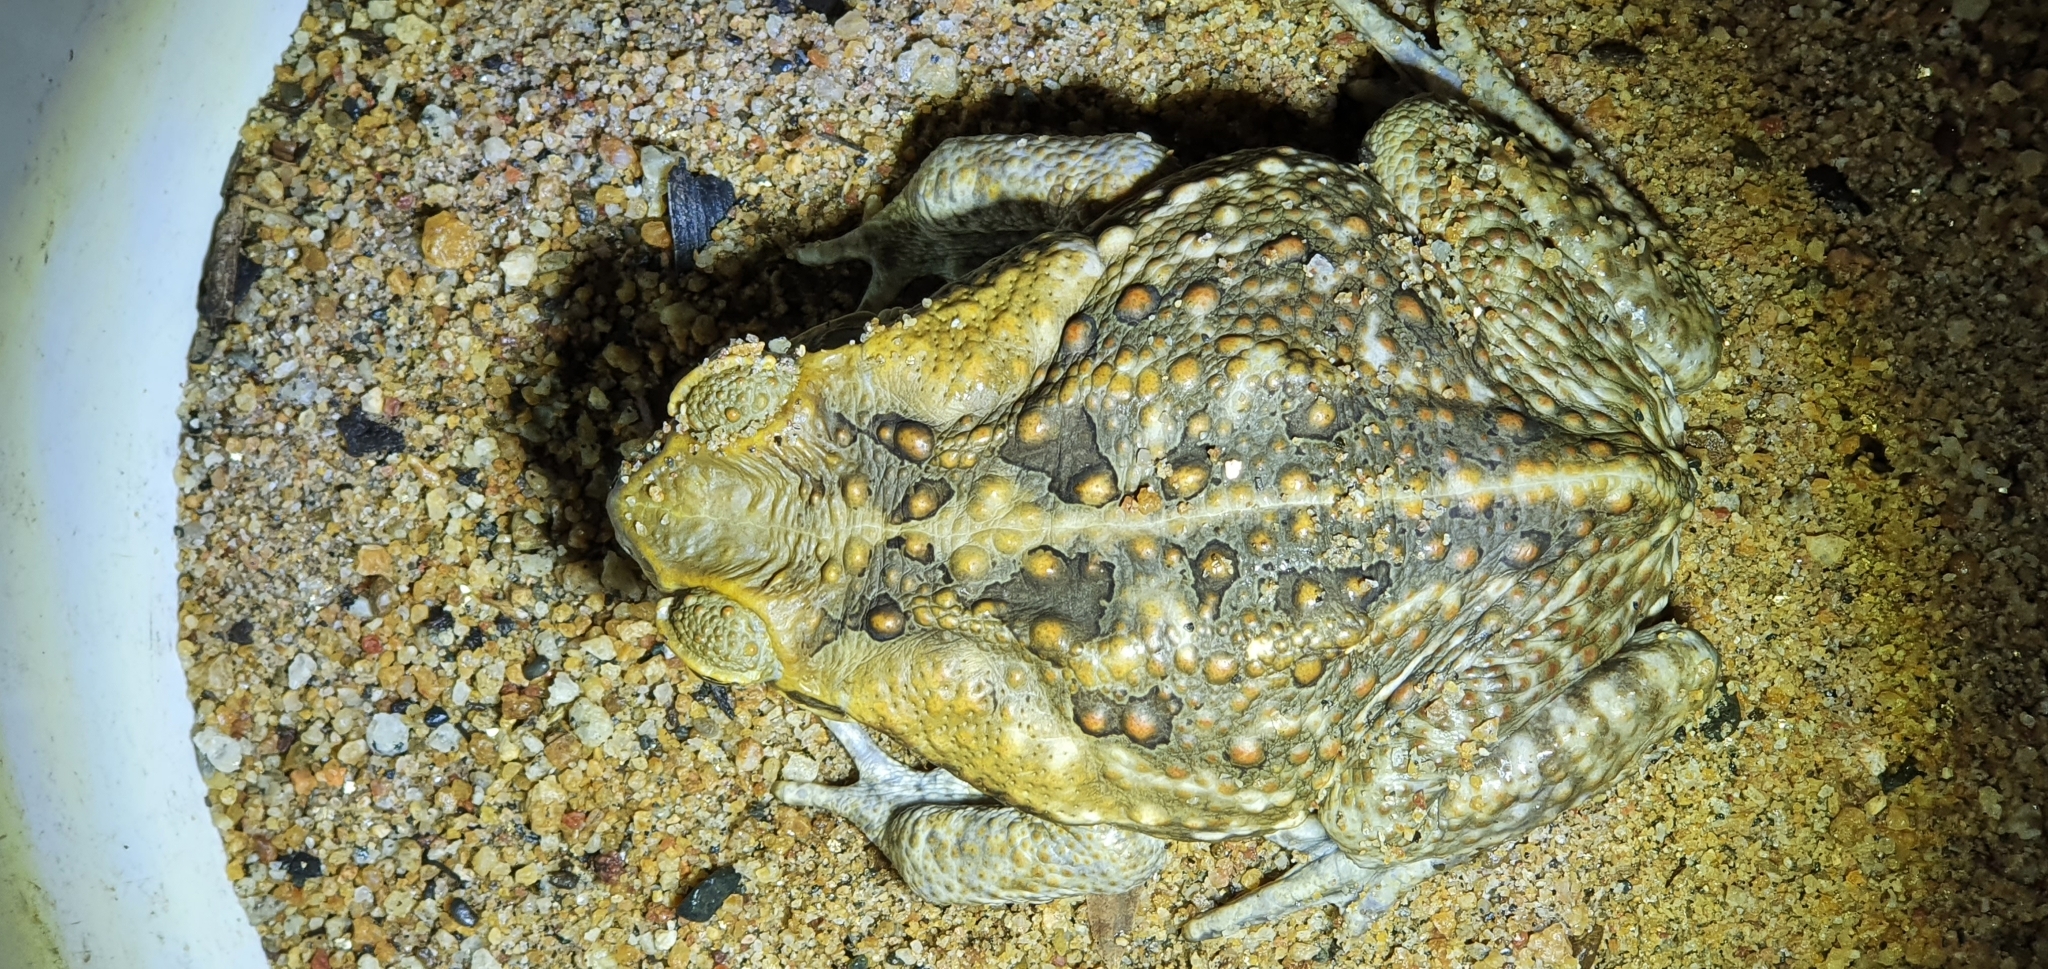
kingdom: Animalia
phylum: Chordata
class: Amphibia
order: Anura
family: Bufonidae
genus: Rhinella
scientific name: Rhinella marina
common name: Cane toad
